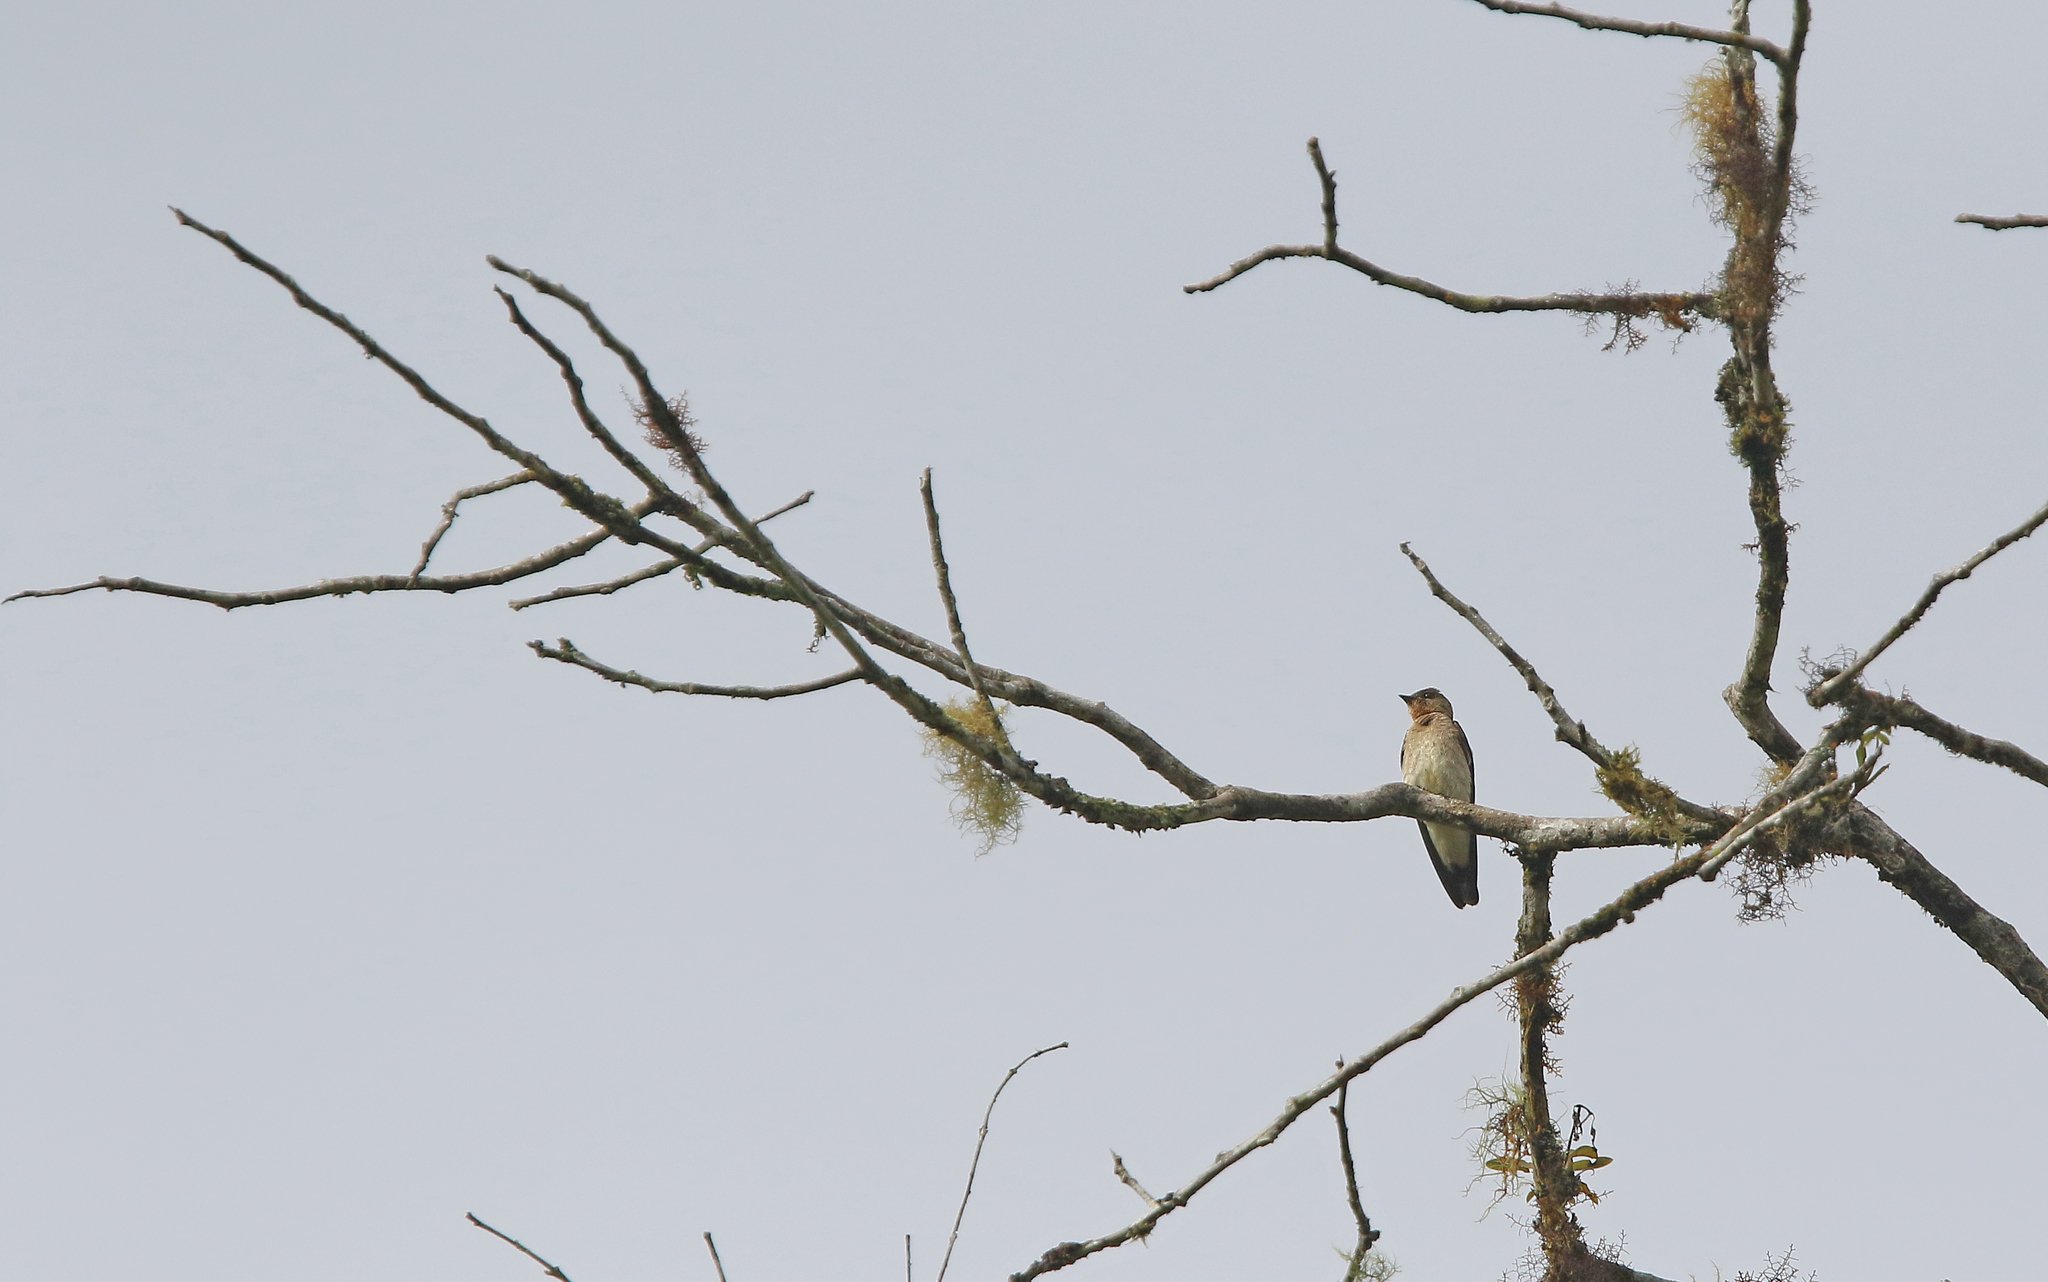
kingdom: Animalia
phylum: Chordata
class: Aves
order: Passeriformes
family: Hirundinidae
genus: Stelgidopteryx
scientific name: Stelgidopteryx ruficollis
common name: Southern rough-winged swallow
